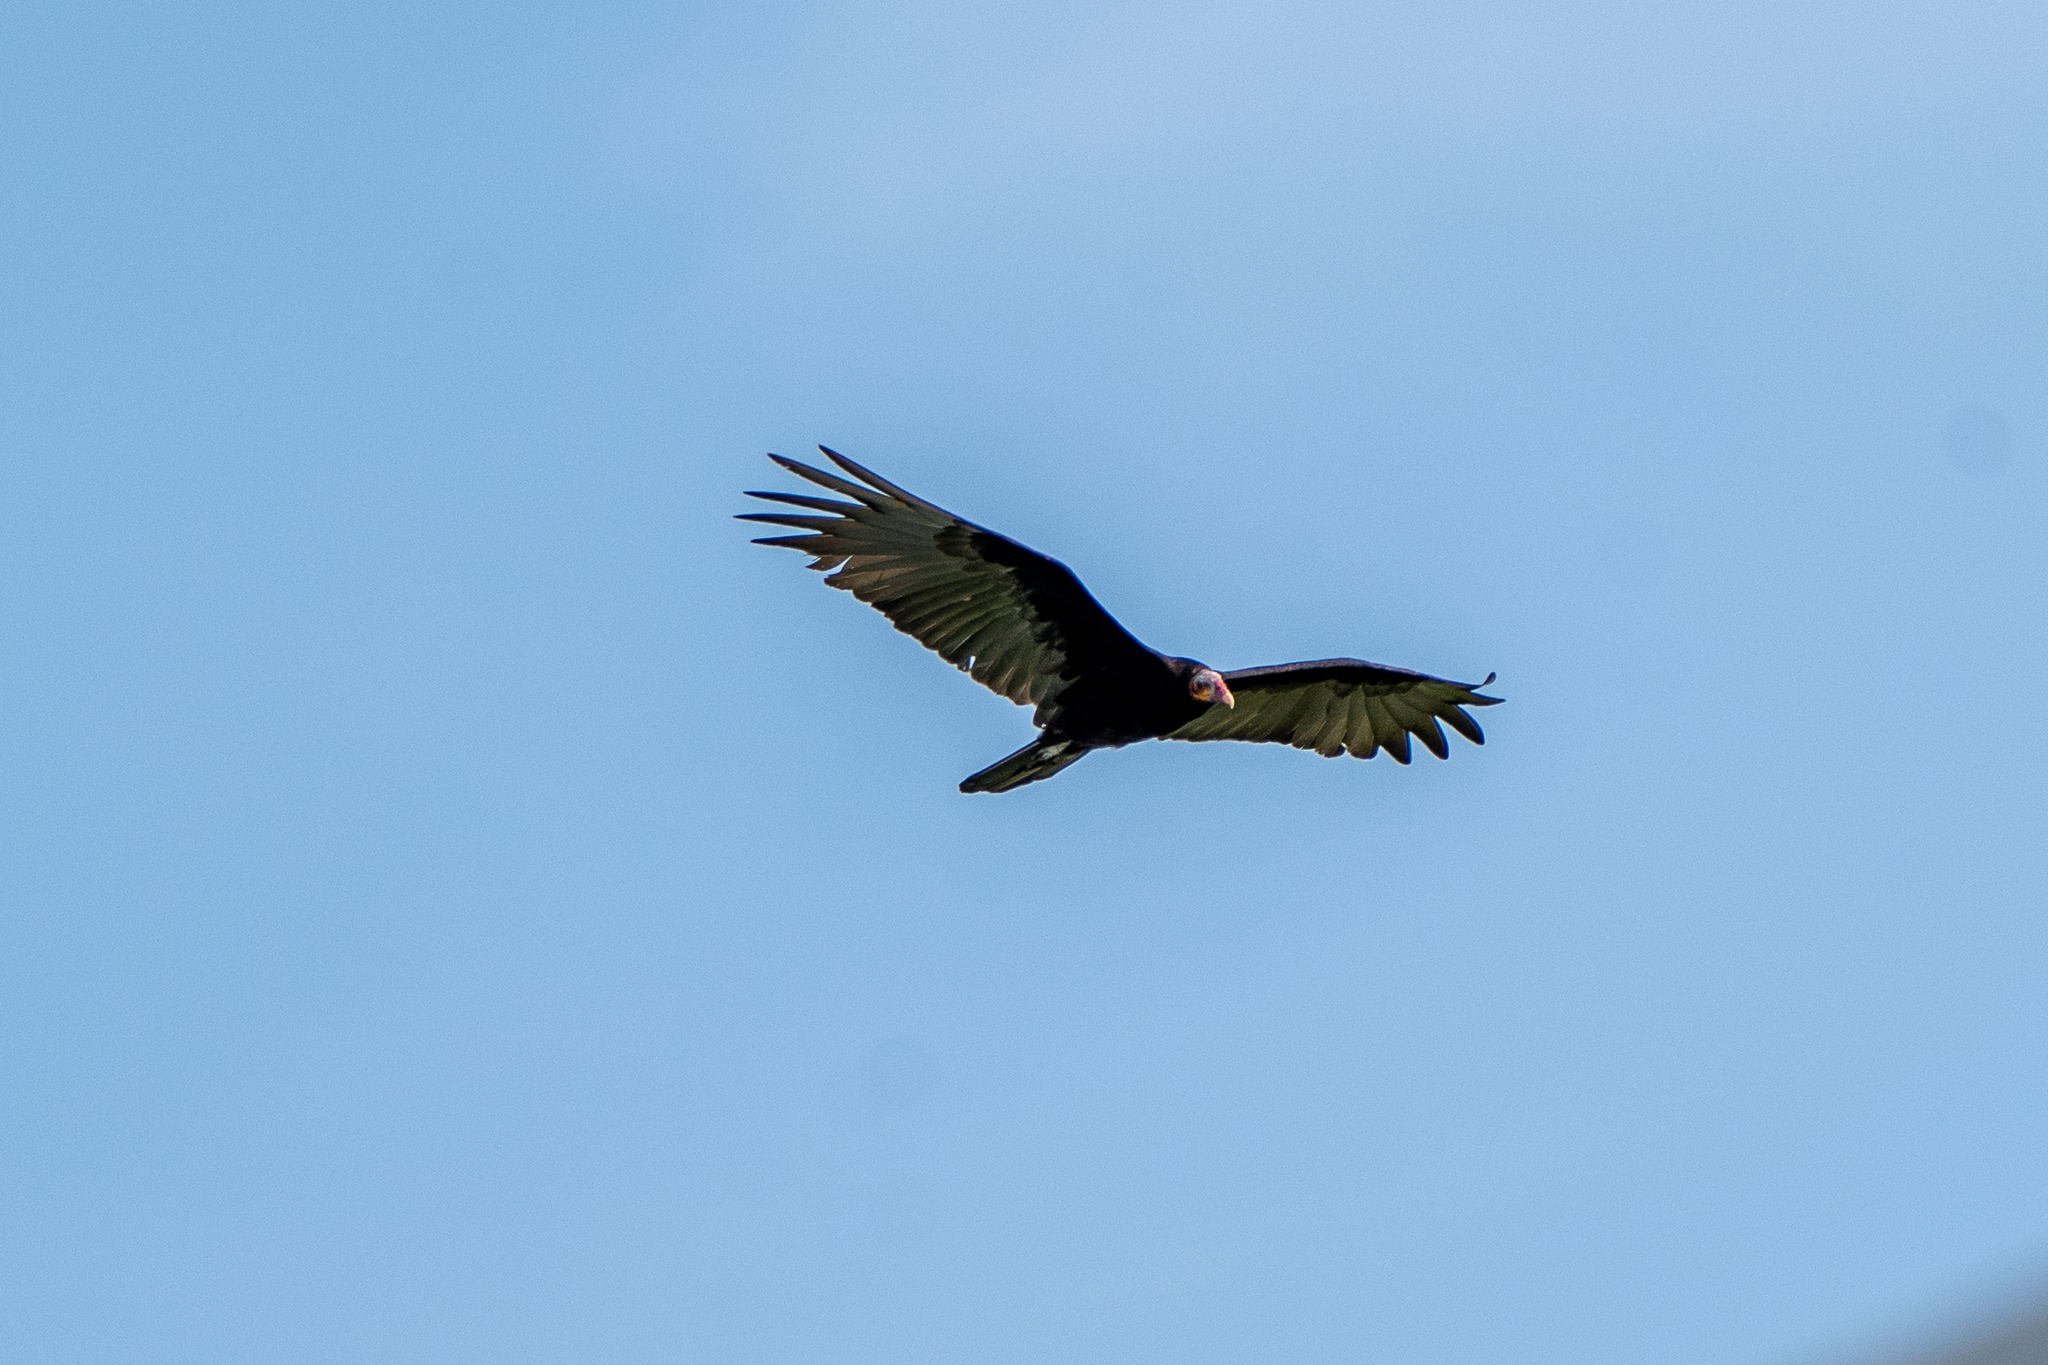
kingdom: Animalia
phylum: Chordata
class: Aves
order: Accipitriformes
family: Cathartidae
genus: Cathartes
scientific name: Cathartes burrovianus
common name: Lesser yellow-headed vulture
